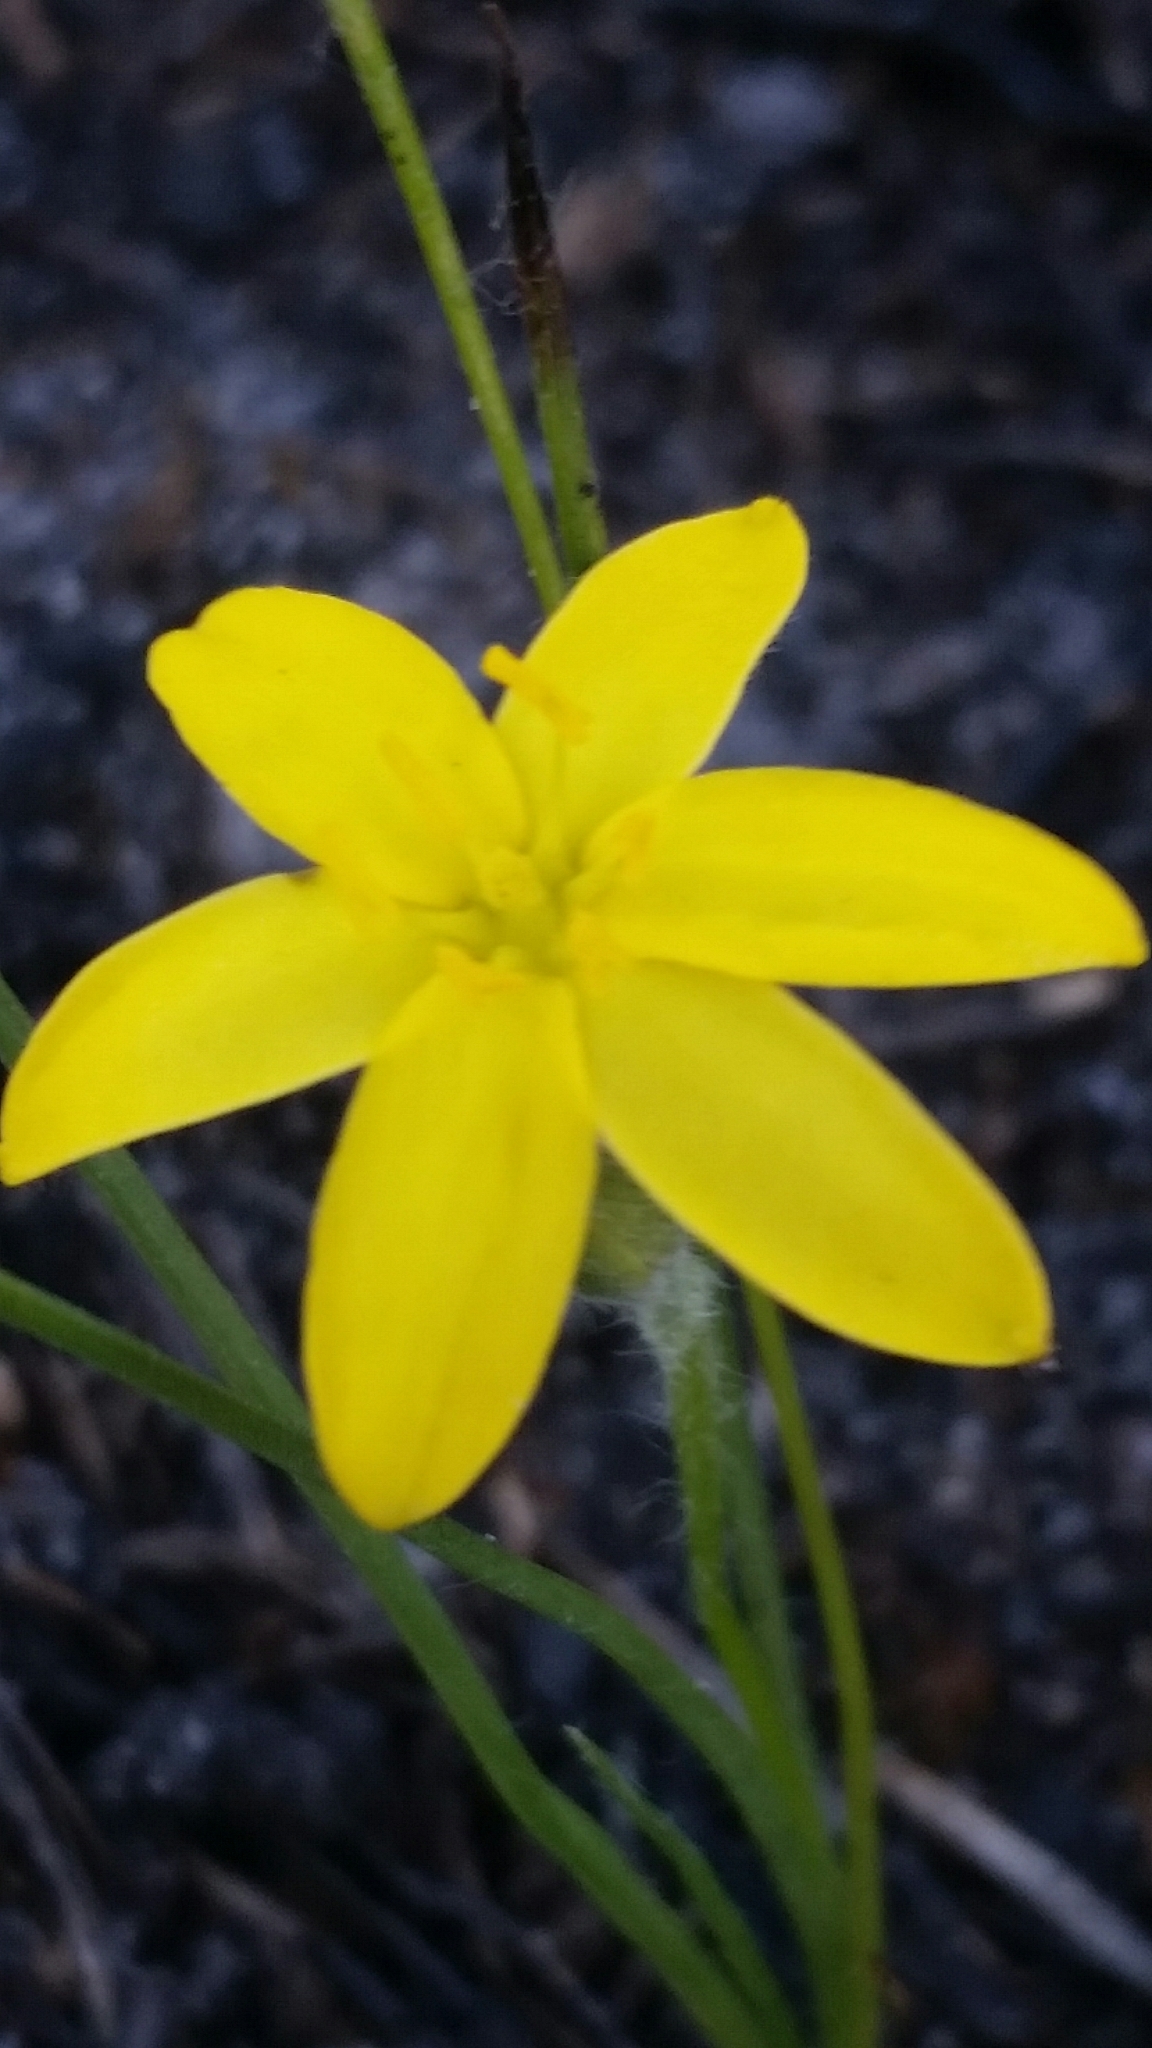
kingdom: Plantae
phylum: Tracheophyta
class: Liliopsida
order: Asparagales
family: Hypoxidaceae
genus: Hypoxis
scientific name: Hypoxis juncea
